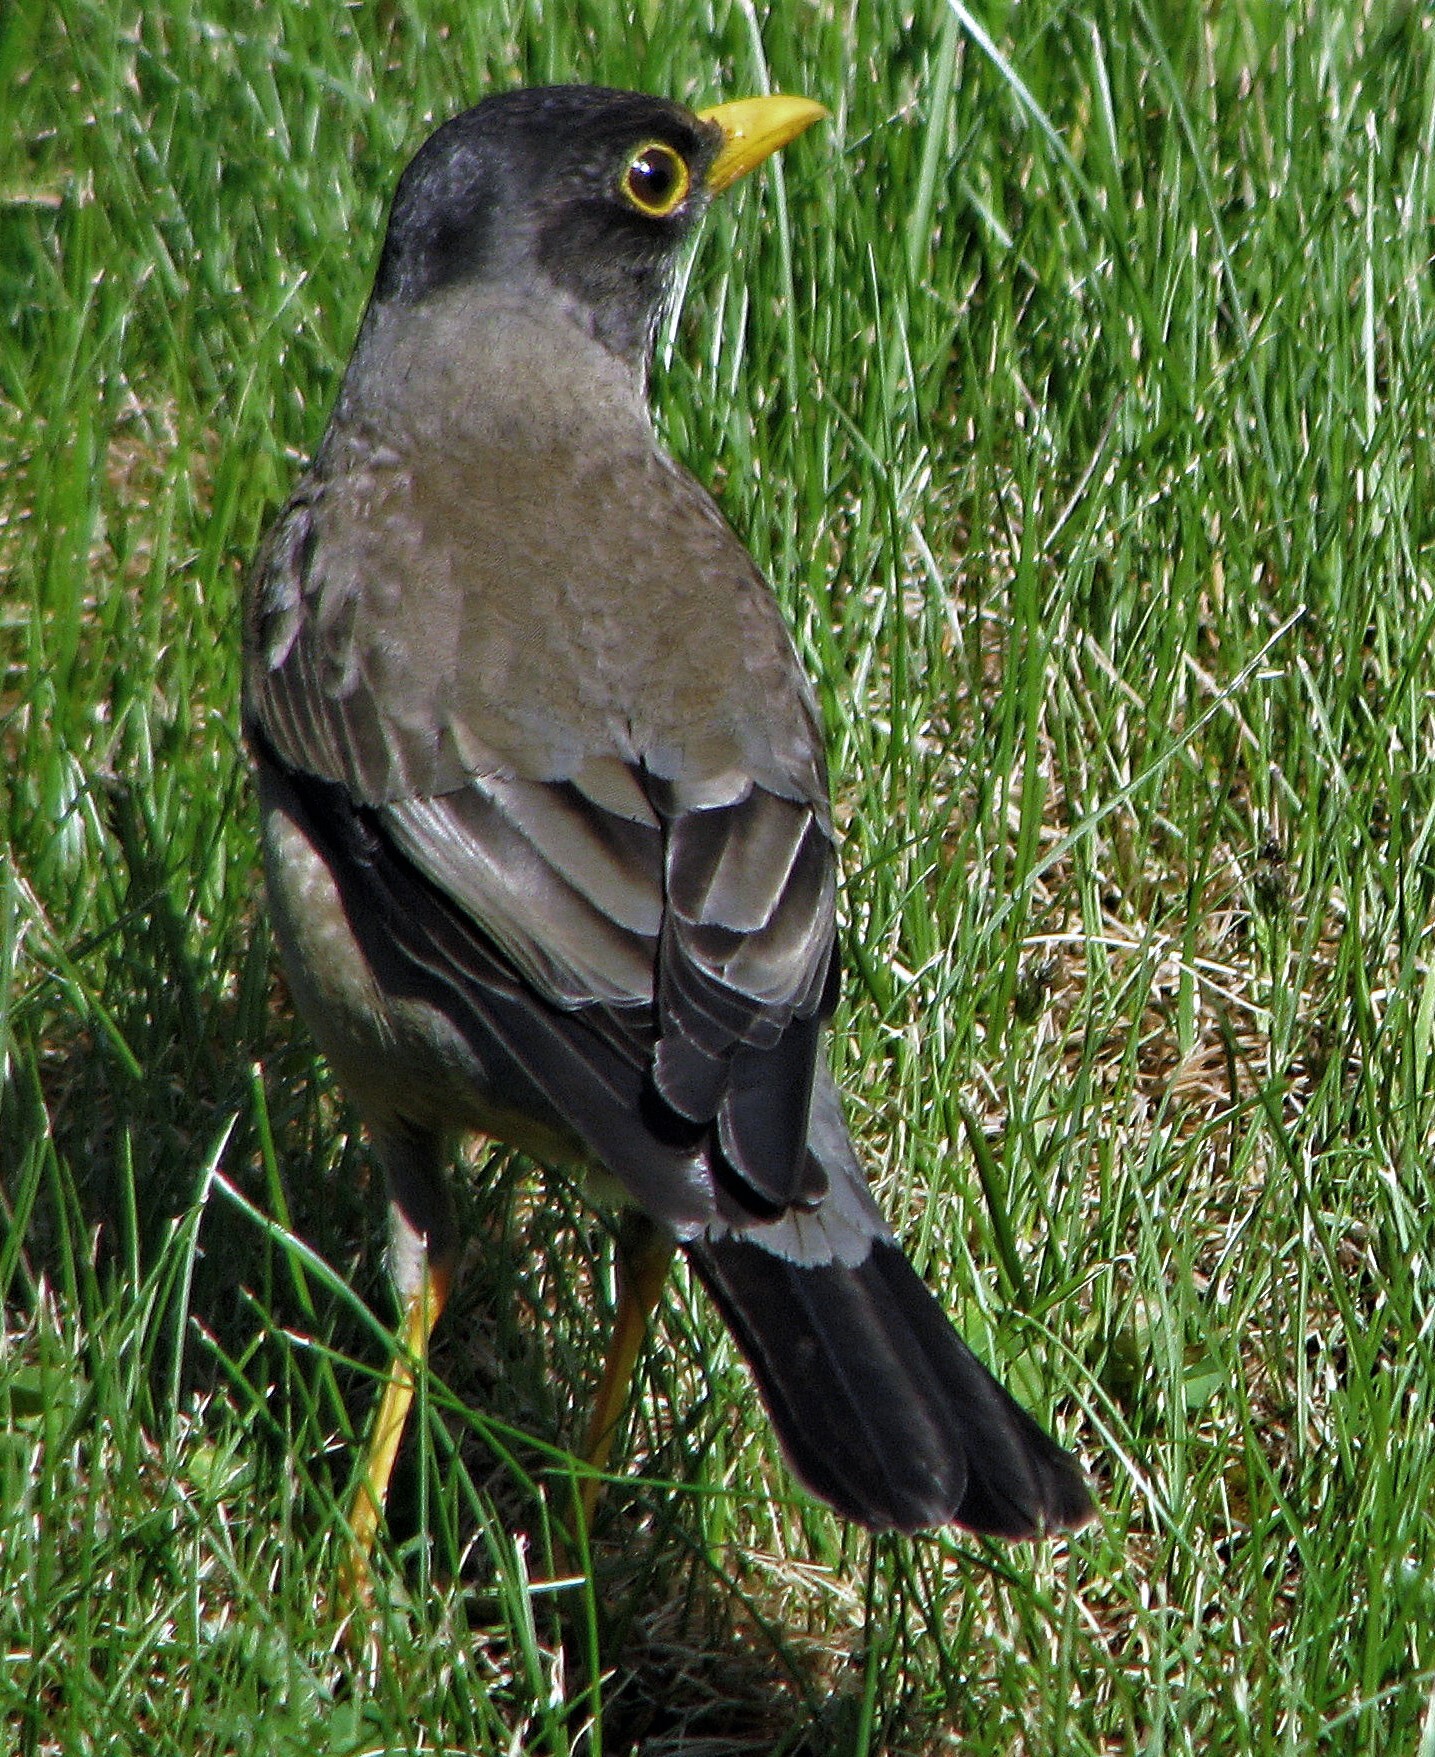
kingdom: Animalia
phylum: Chordata
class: Aves
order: Passeriformes
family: Turdidae
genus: Turdus
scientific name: Turdus falcklandii
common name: Austral thrush
